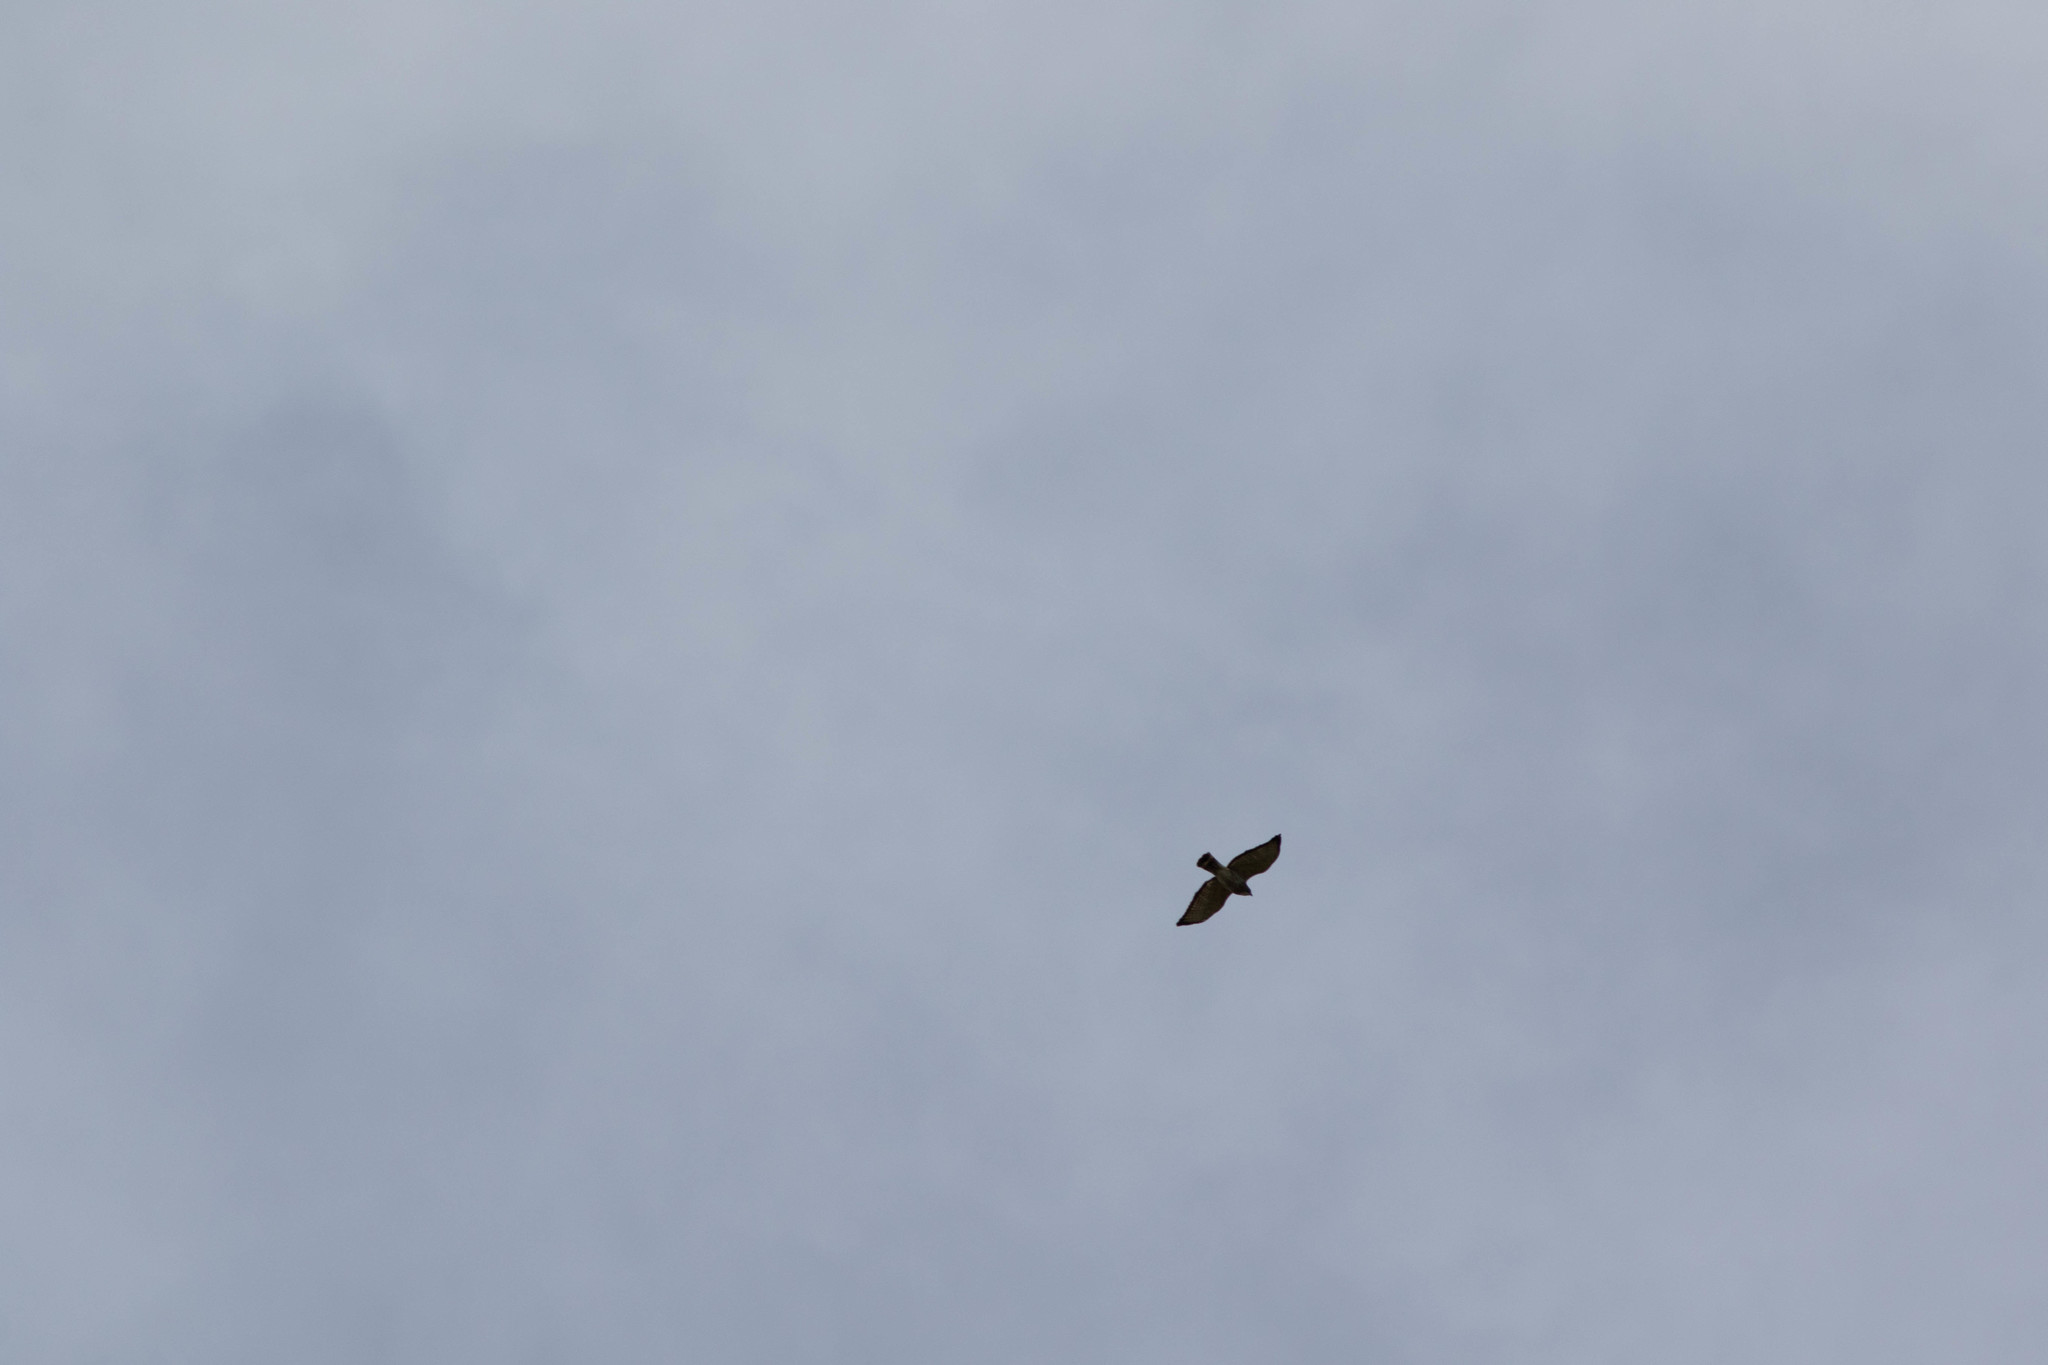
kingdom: Animalia
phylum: Chordata
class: Aves
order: Accipitriformes
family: Accipitridae
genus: Buteo
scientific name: Buteo platypterus
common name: Broad-winged hawk
